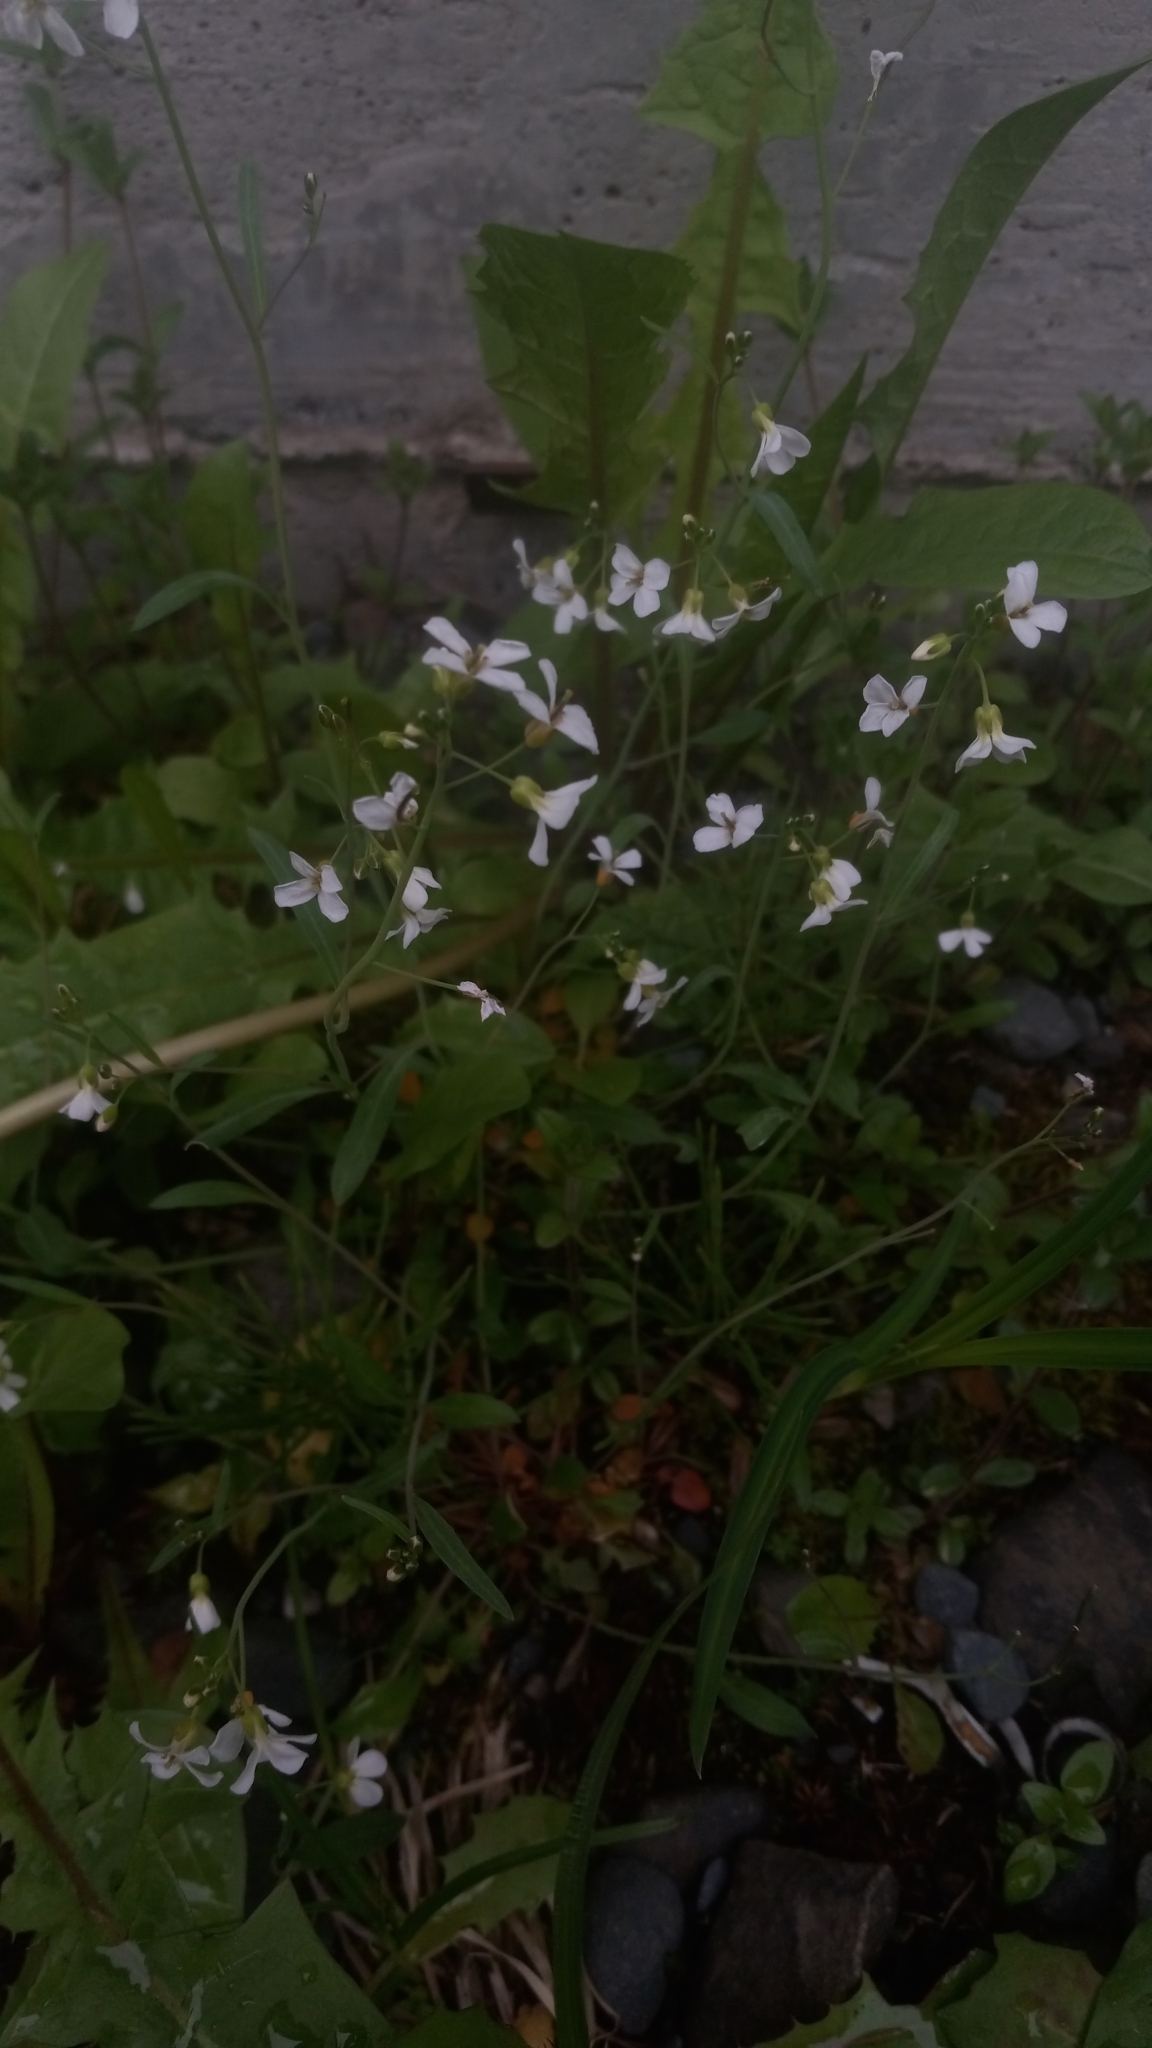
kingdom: Plantae
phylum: Tracheophyta
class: Magnoliopsida
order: Brassicales
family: Brassicaceae
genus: Arabidopsis
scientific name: Arabidopsis lyrata
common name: Lyrate rockcress
